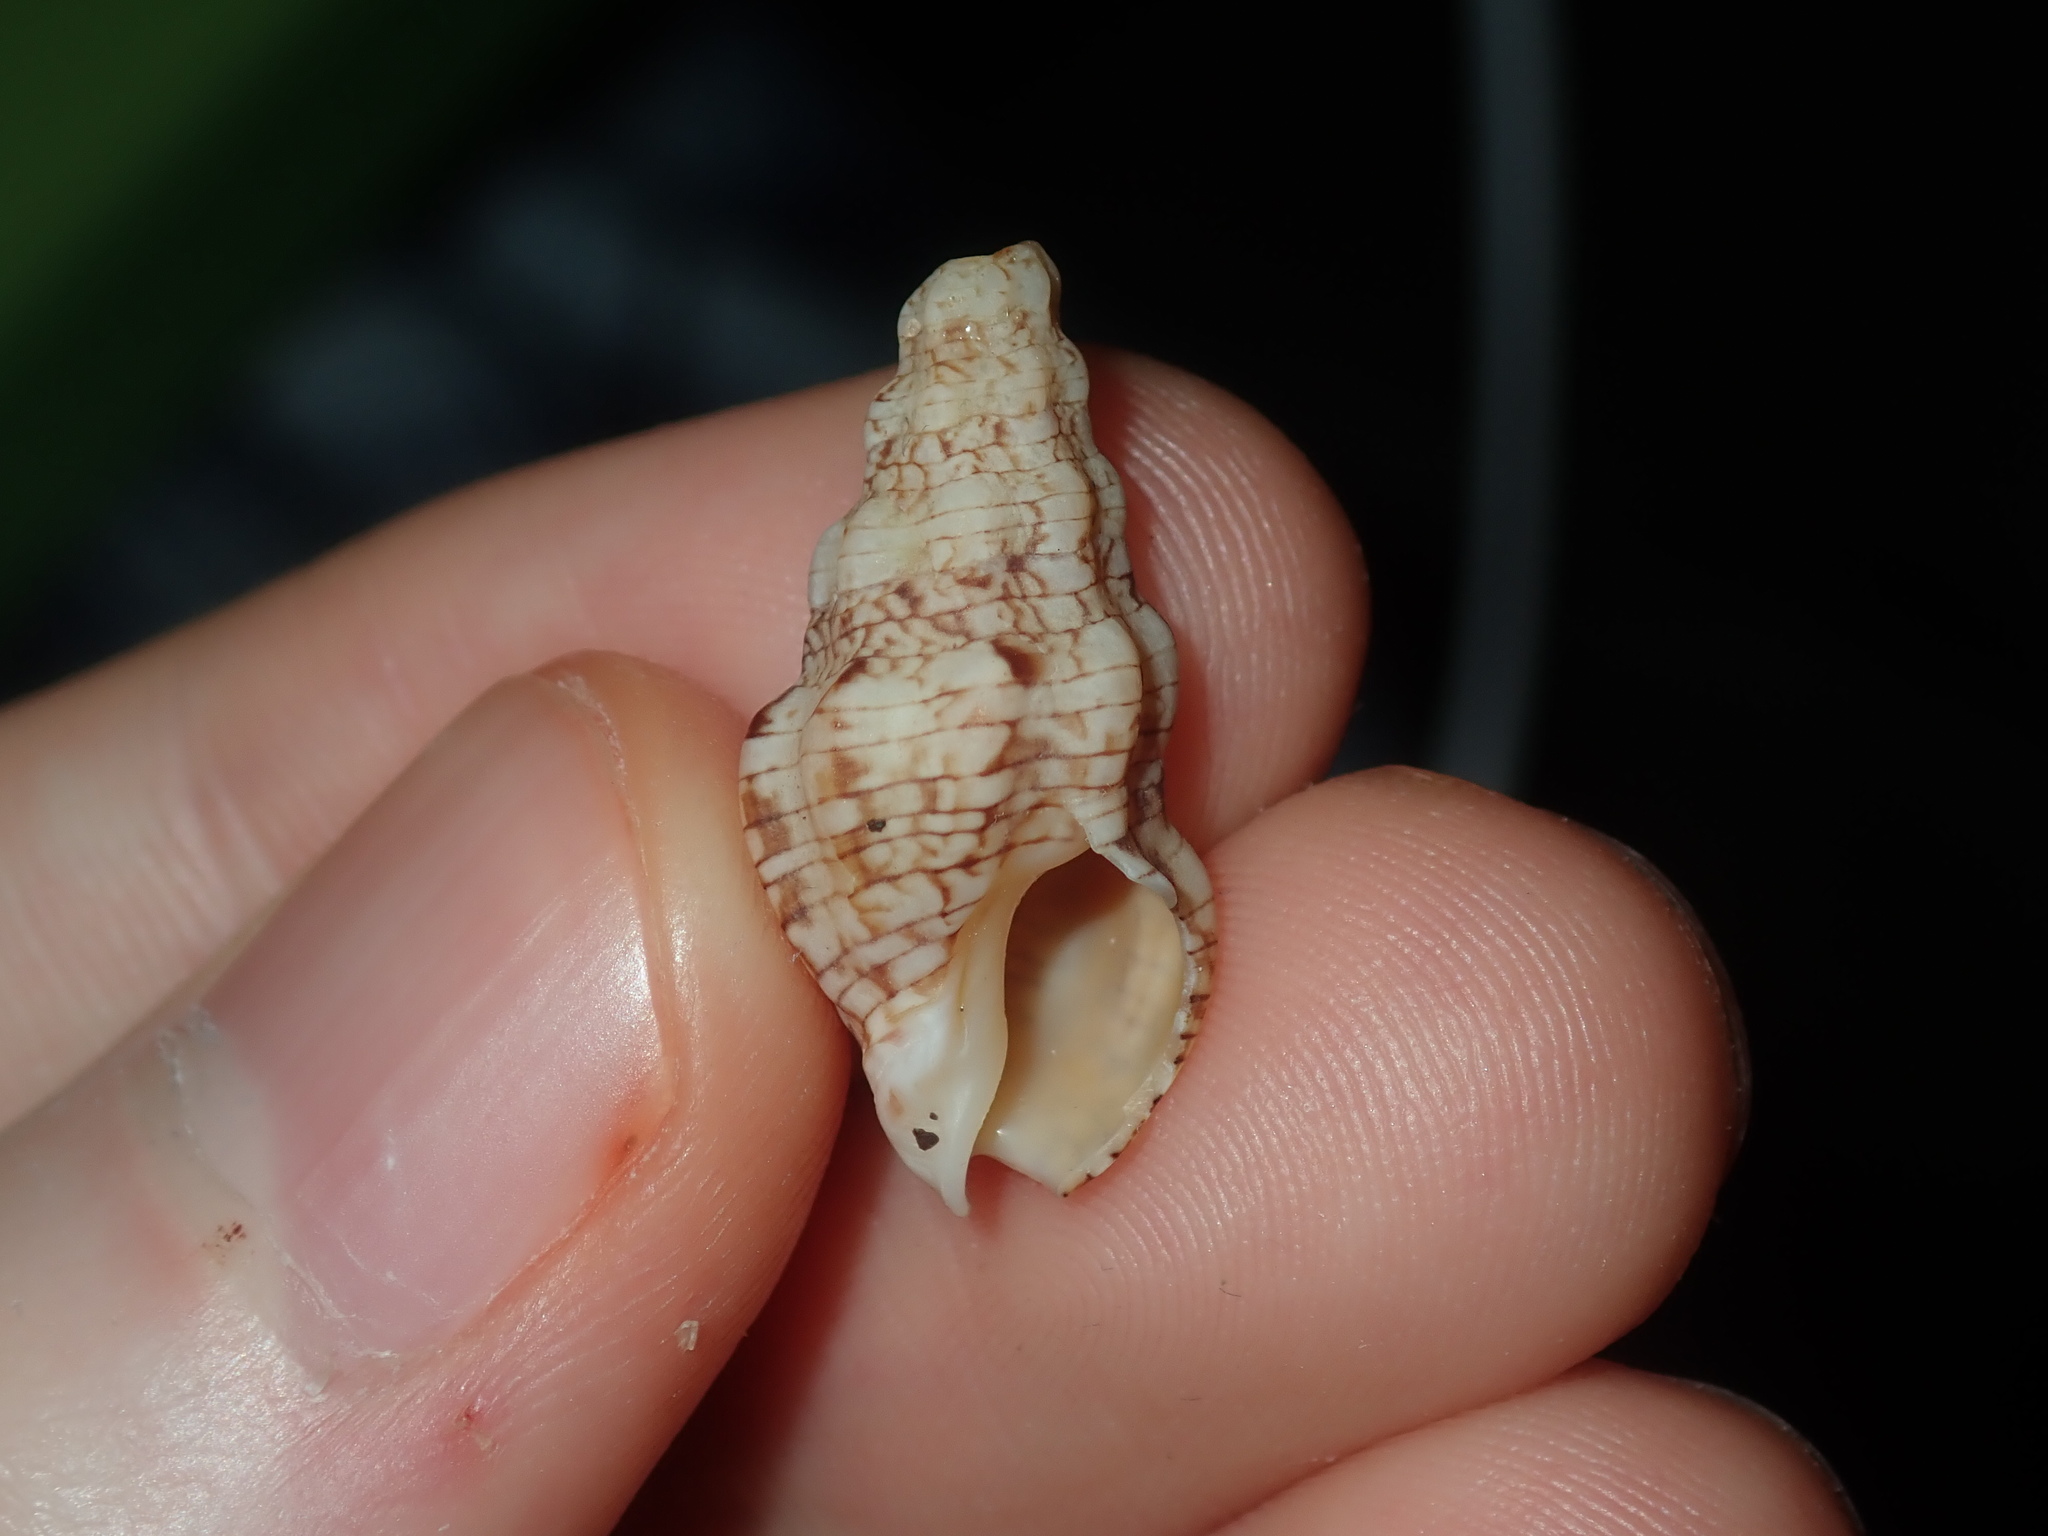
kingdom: Animalia
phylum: Mollusca
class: Gastropoda
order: Neogastropoda
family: Cominellidae
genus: Cominella
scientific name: Cominella eburnea
